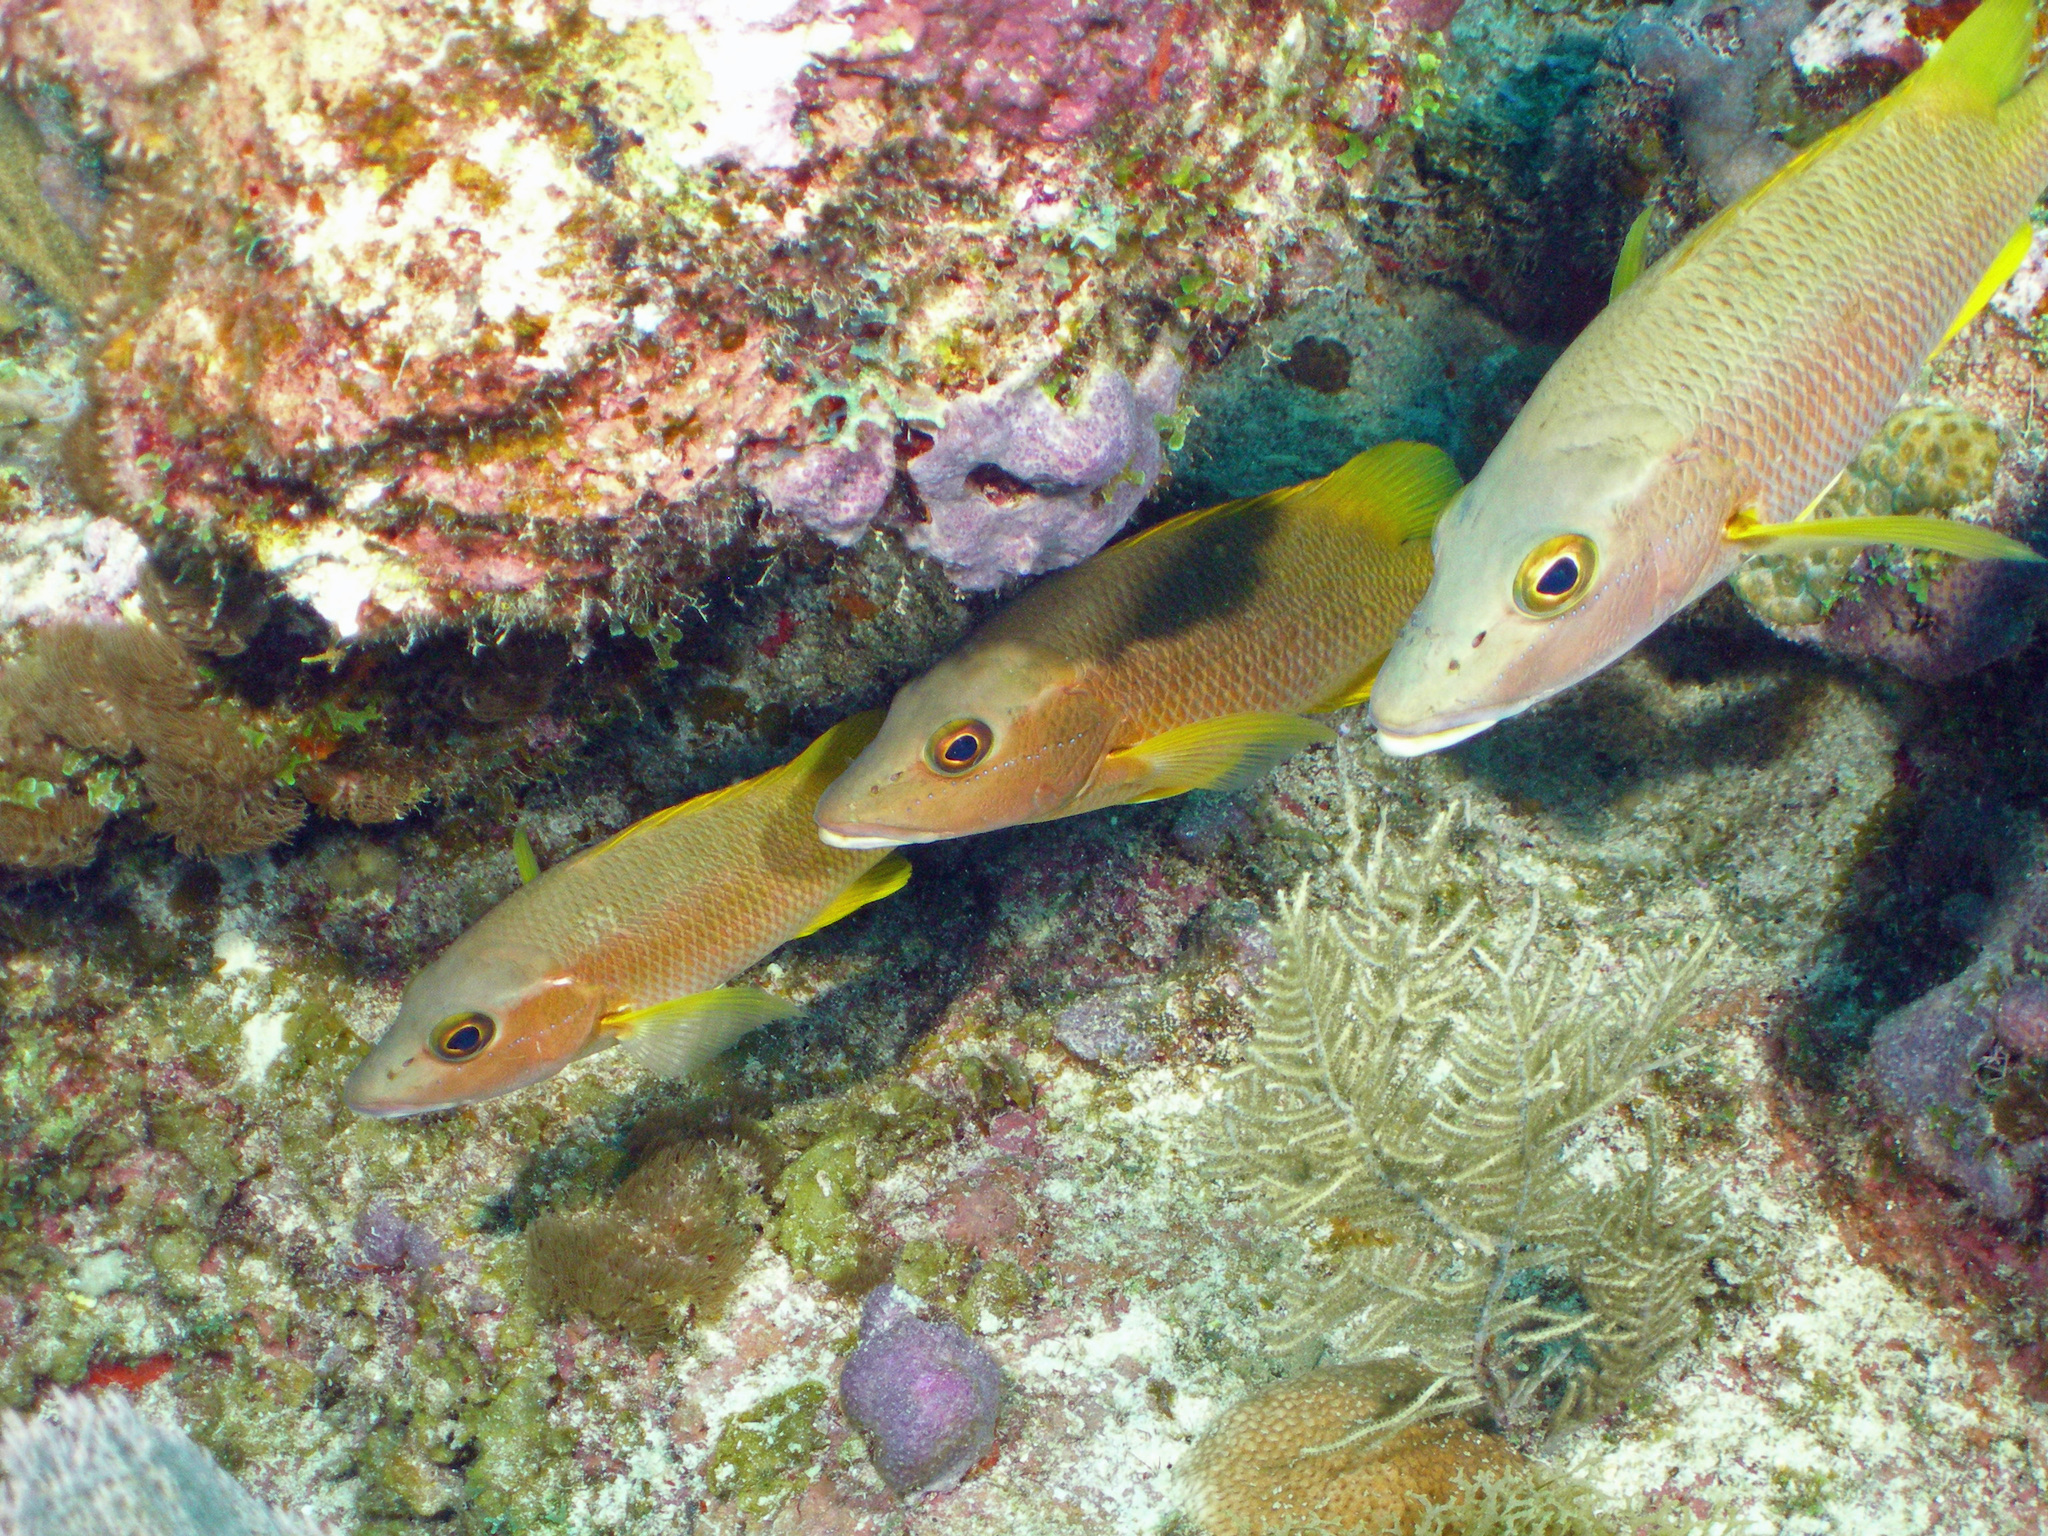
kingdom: Animalia
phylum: Chordata
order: Perciformes
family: Lutjanidae
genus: Lutjanus
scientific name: Lutjanus apodus
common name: Schoolmaster
